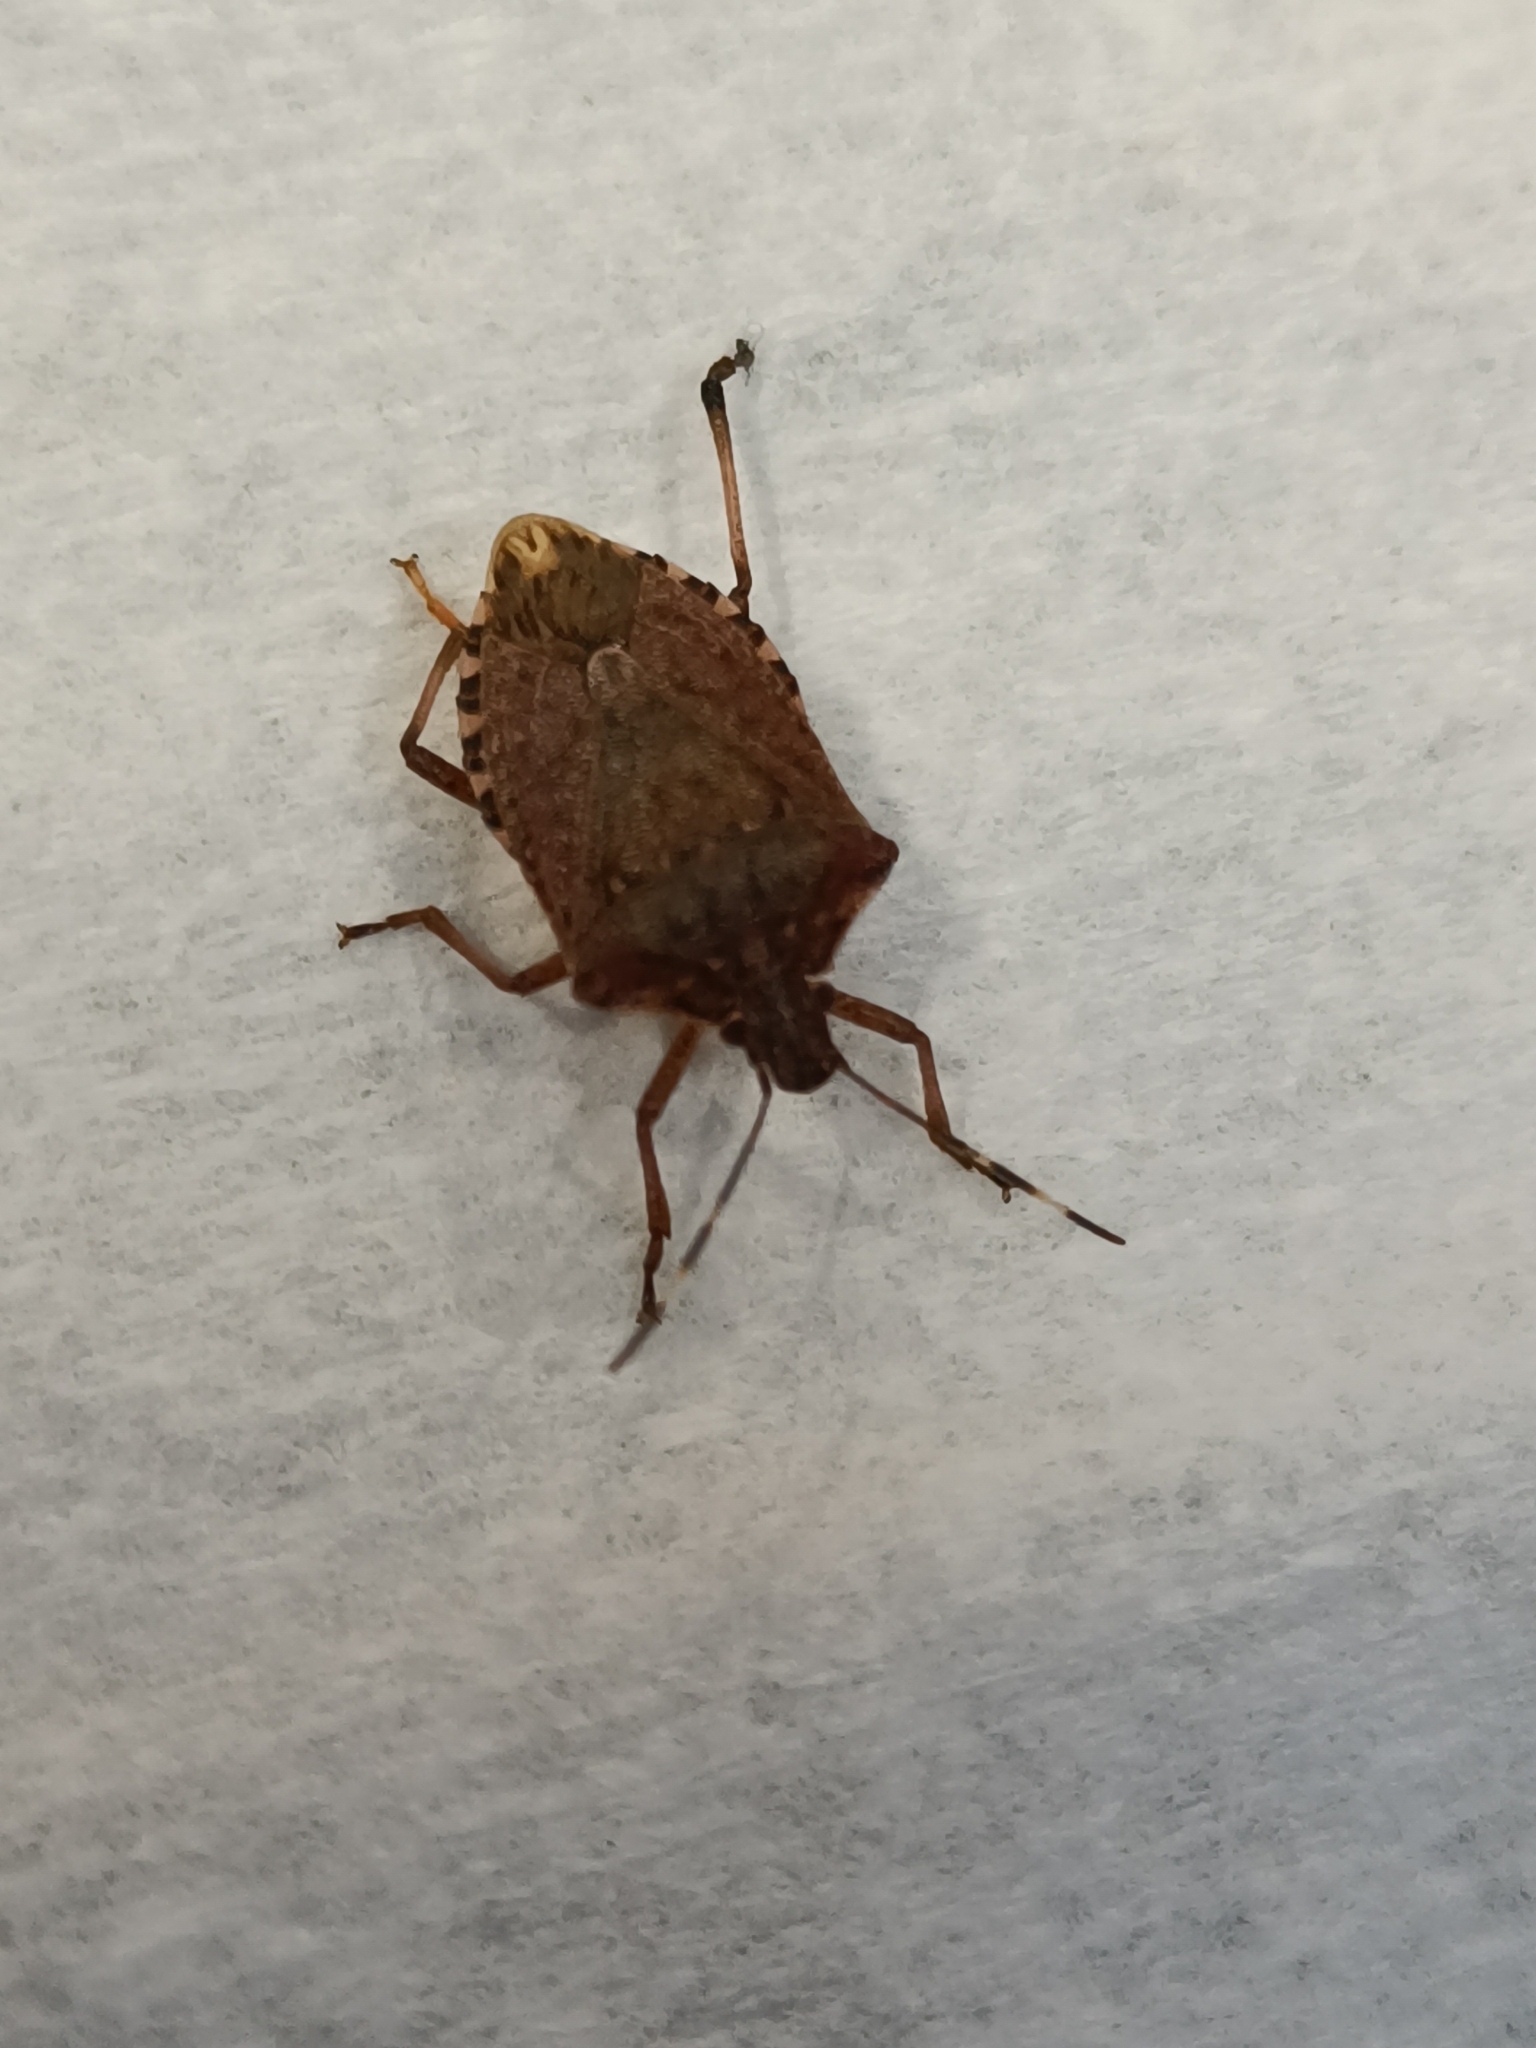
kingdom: Animalia
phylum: Arthropoda
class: Insecta
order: Hemiptera
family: Pentatomidae
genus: Halyomorpha
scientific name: Halyomorpha halys
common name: Brown marmorated stink bug
